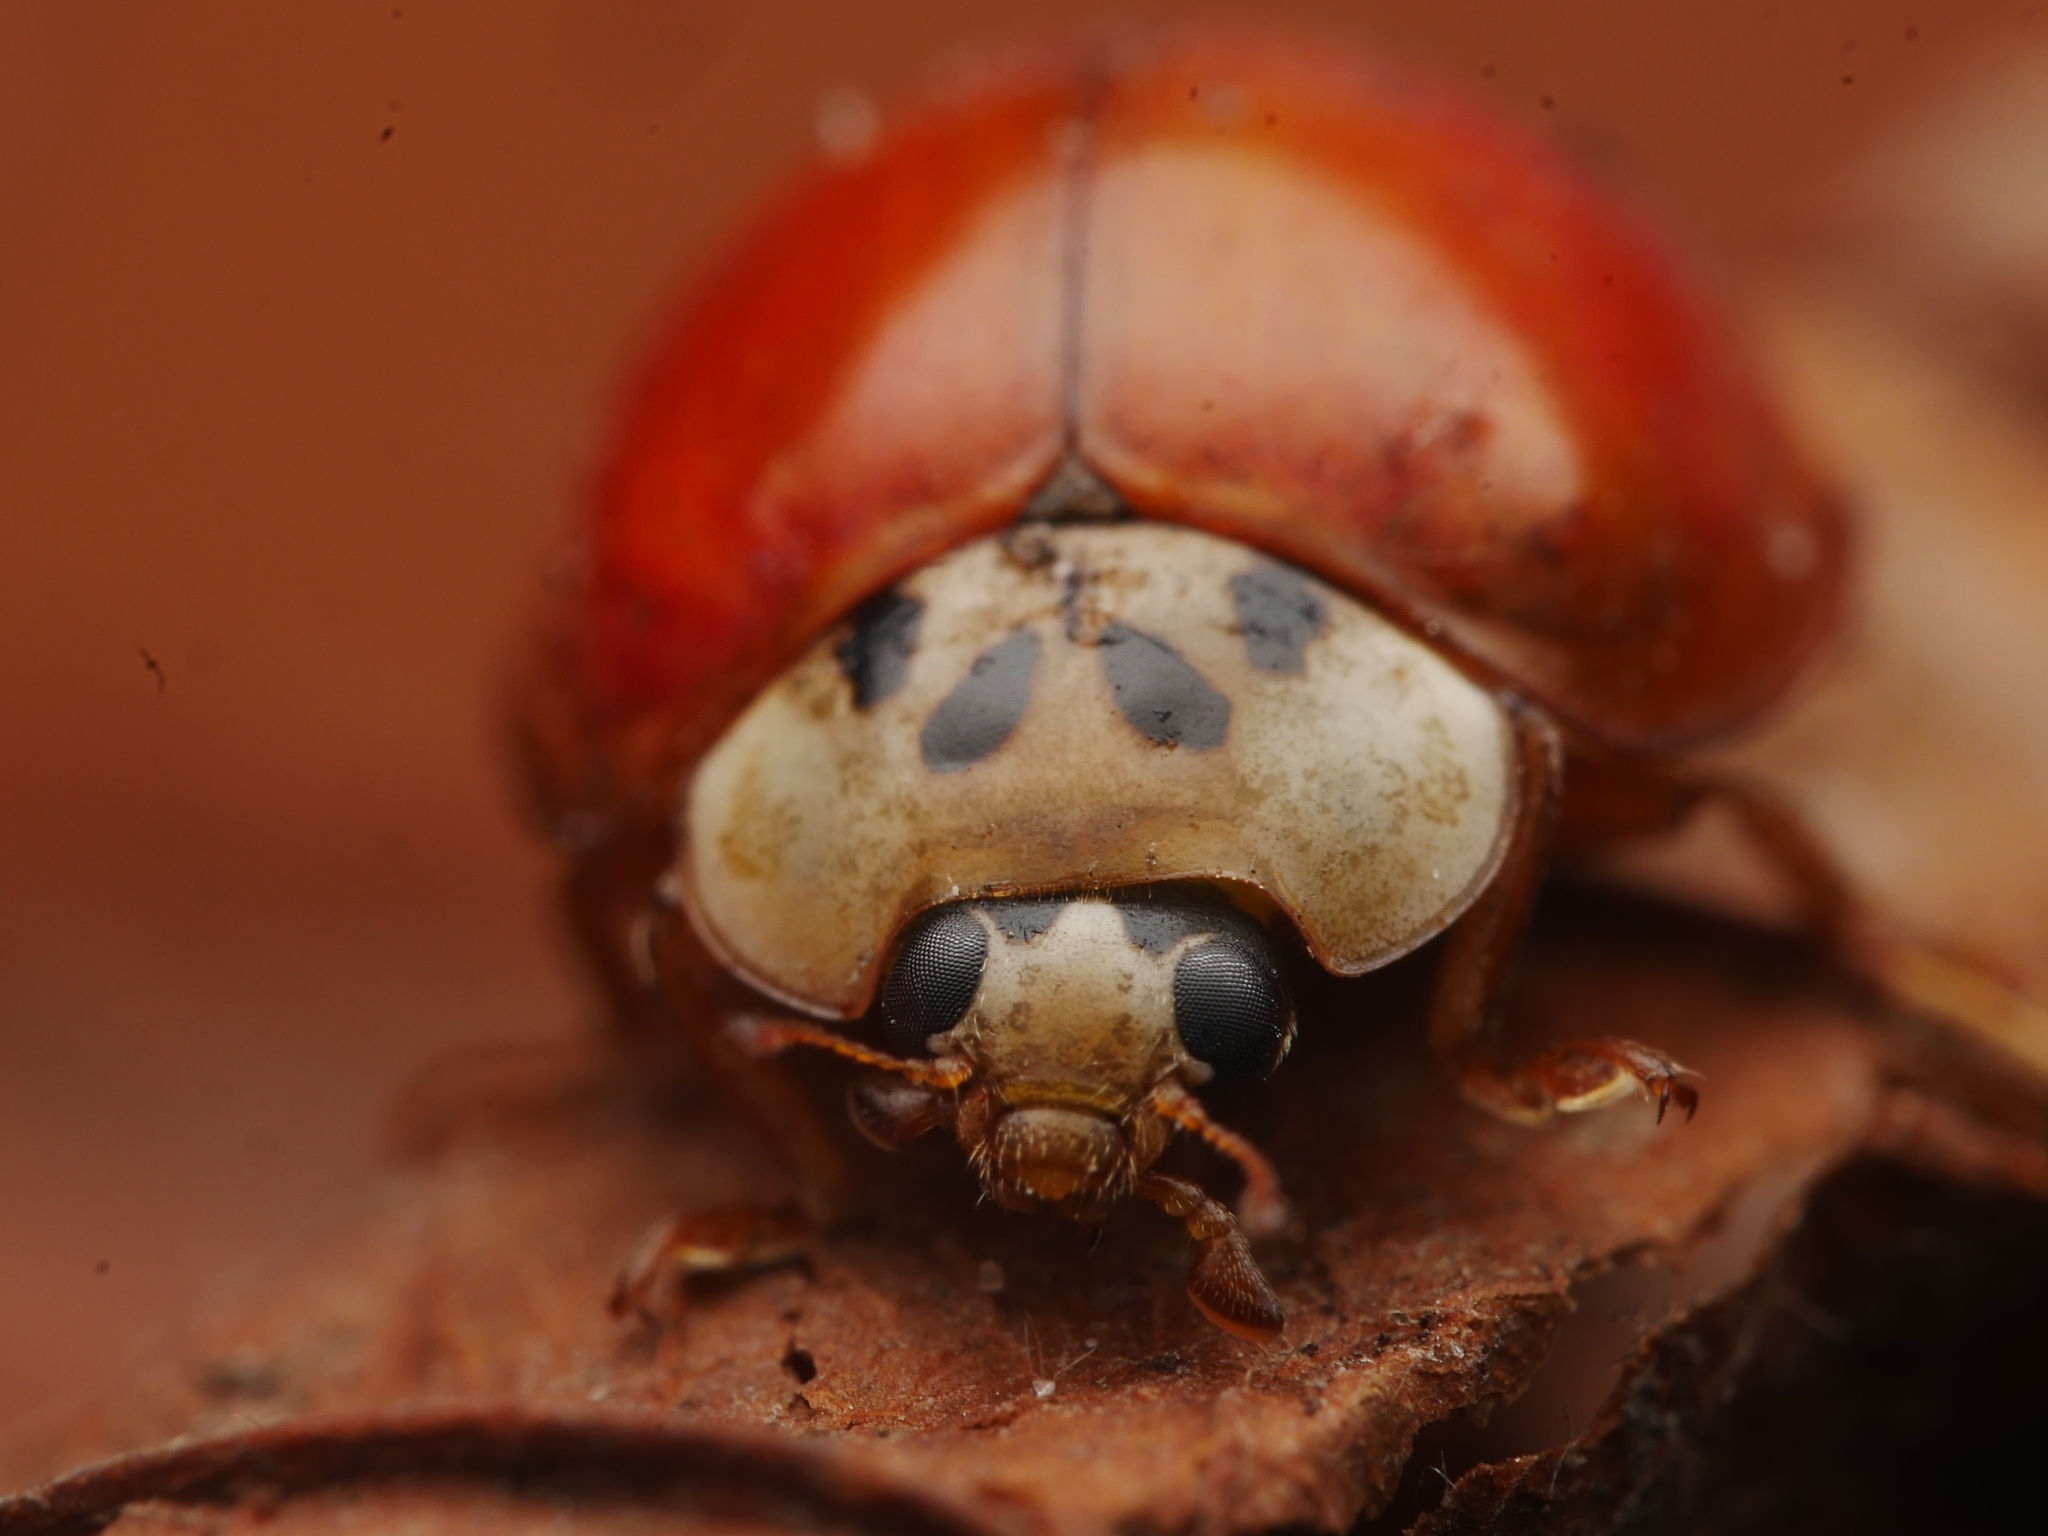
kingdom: Animalia
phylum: Arthropoda
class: Insecta
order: Coleoptera
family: Coccinellidae
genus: Harmonia
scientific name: Harmonia axyridis
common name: Harlequin ladybird
